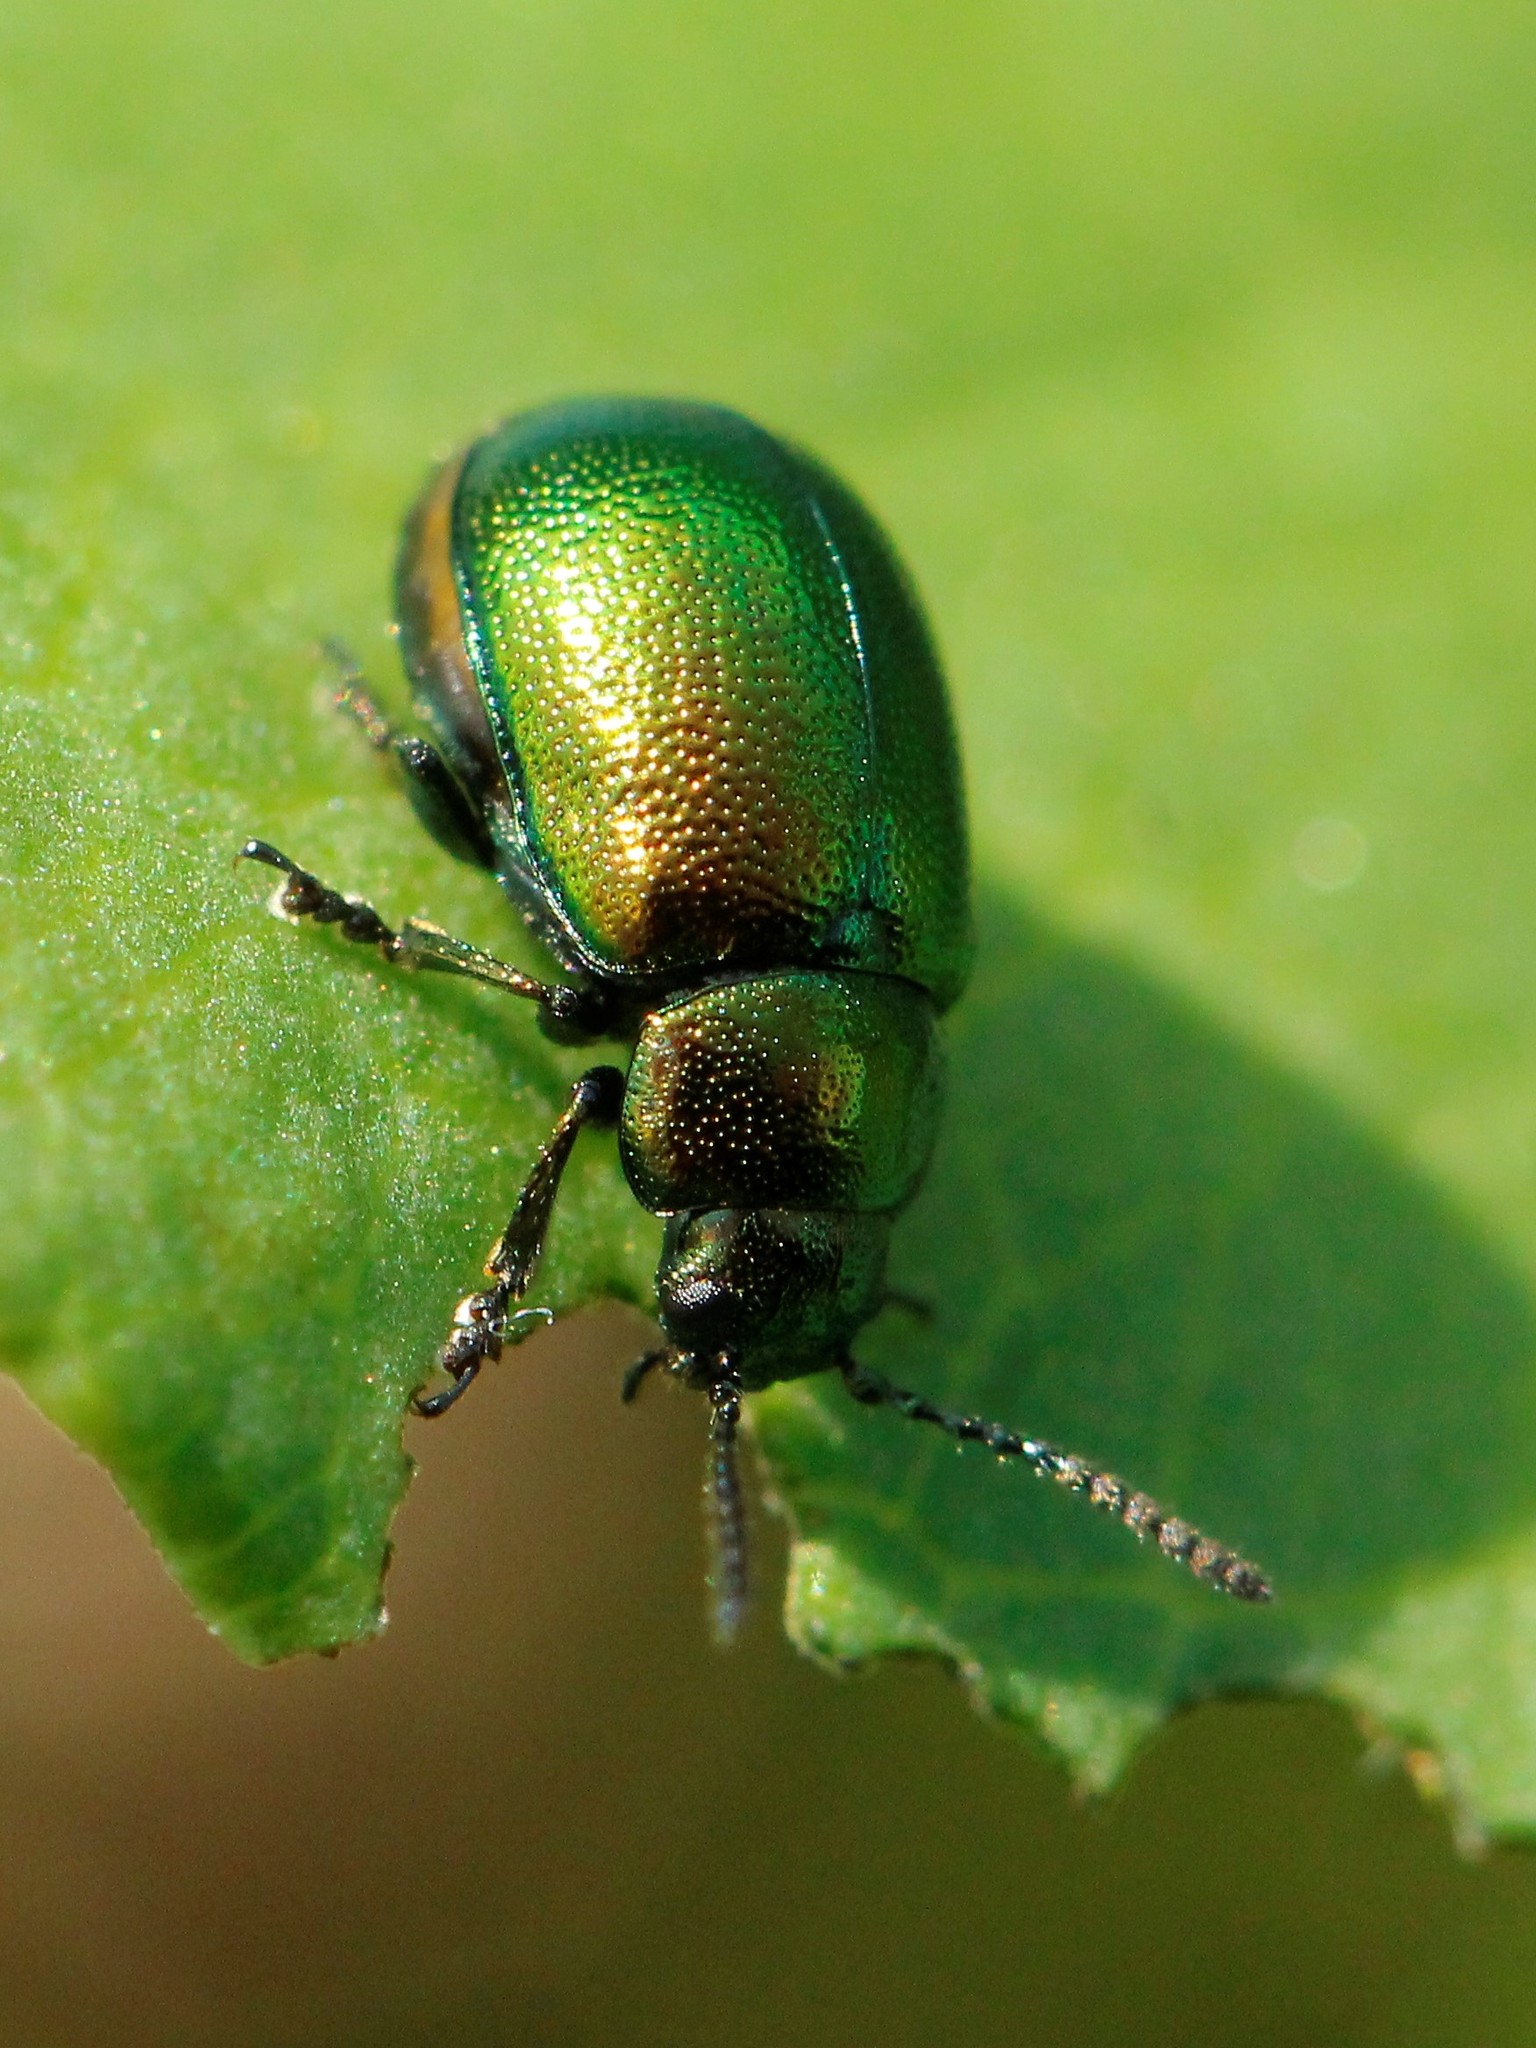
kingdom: Animalia
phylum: Arthropoda
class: Insecta
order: Coleoptera
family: Chrysomelidae
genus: Gastrophysa
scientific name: Gastrophysa viridula
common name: Green dock beetle
